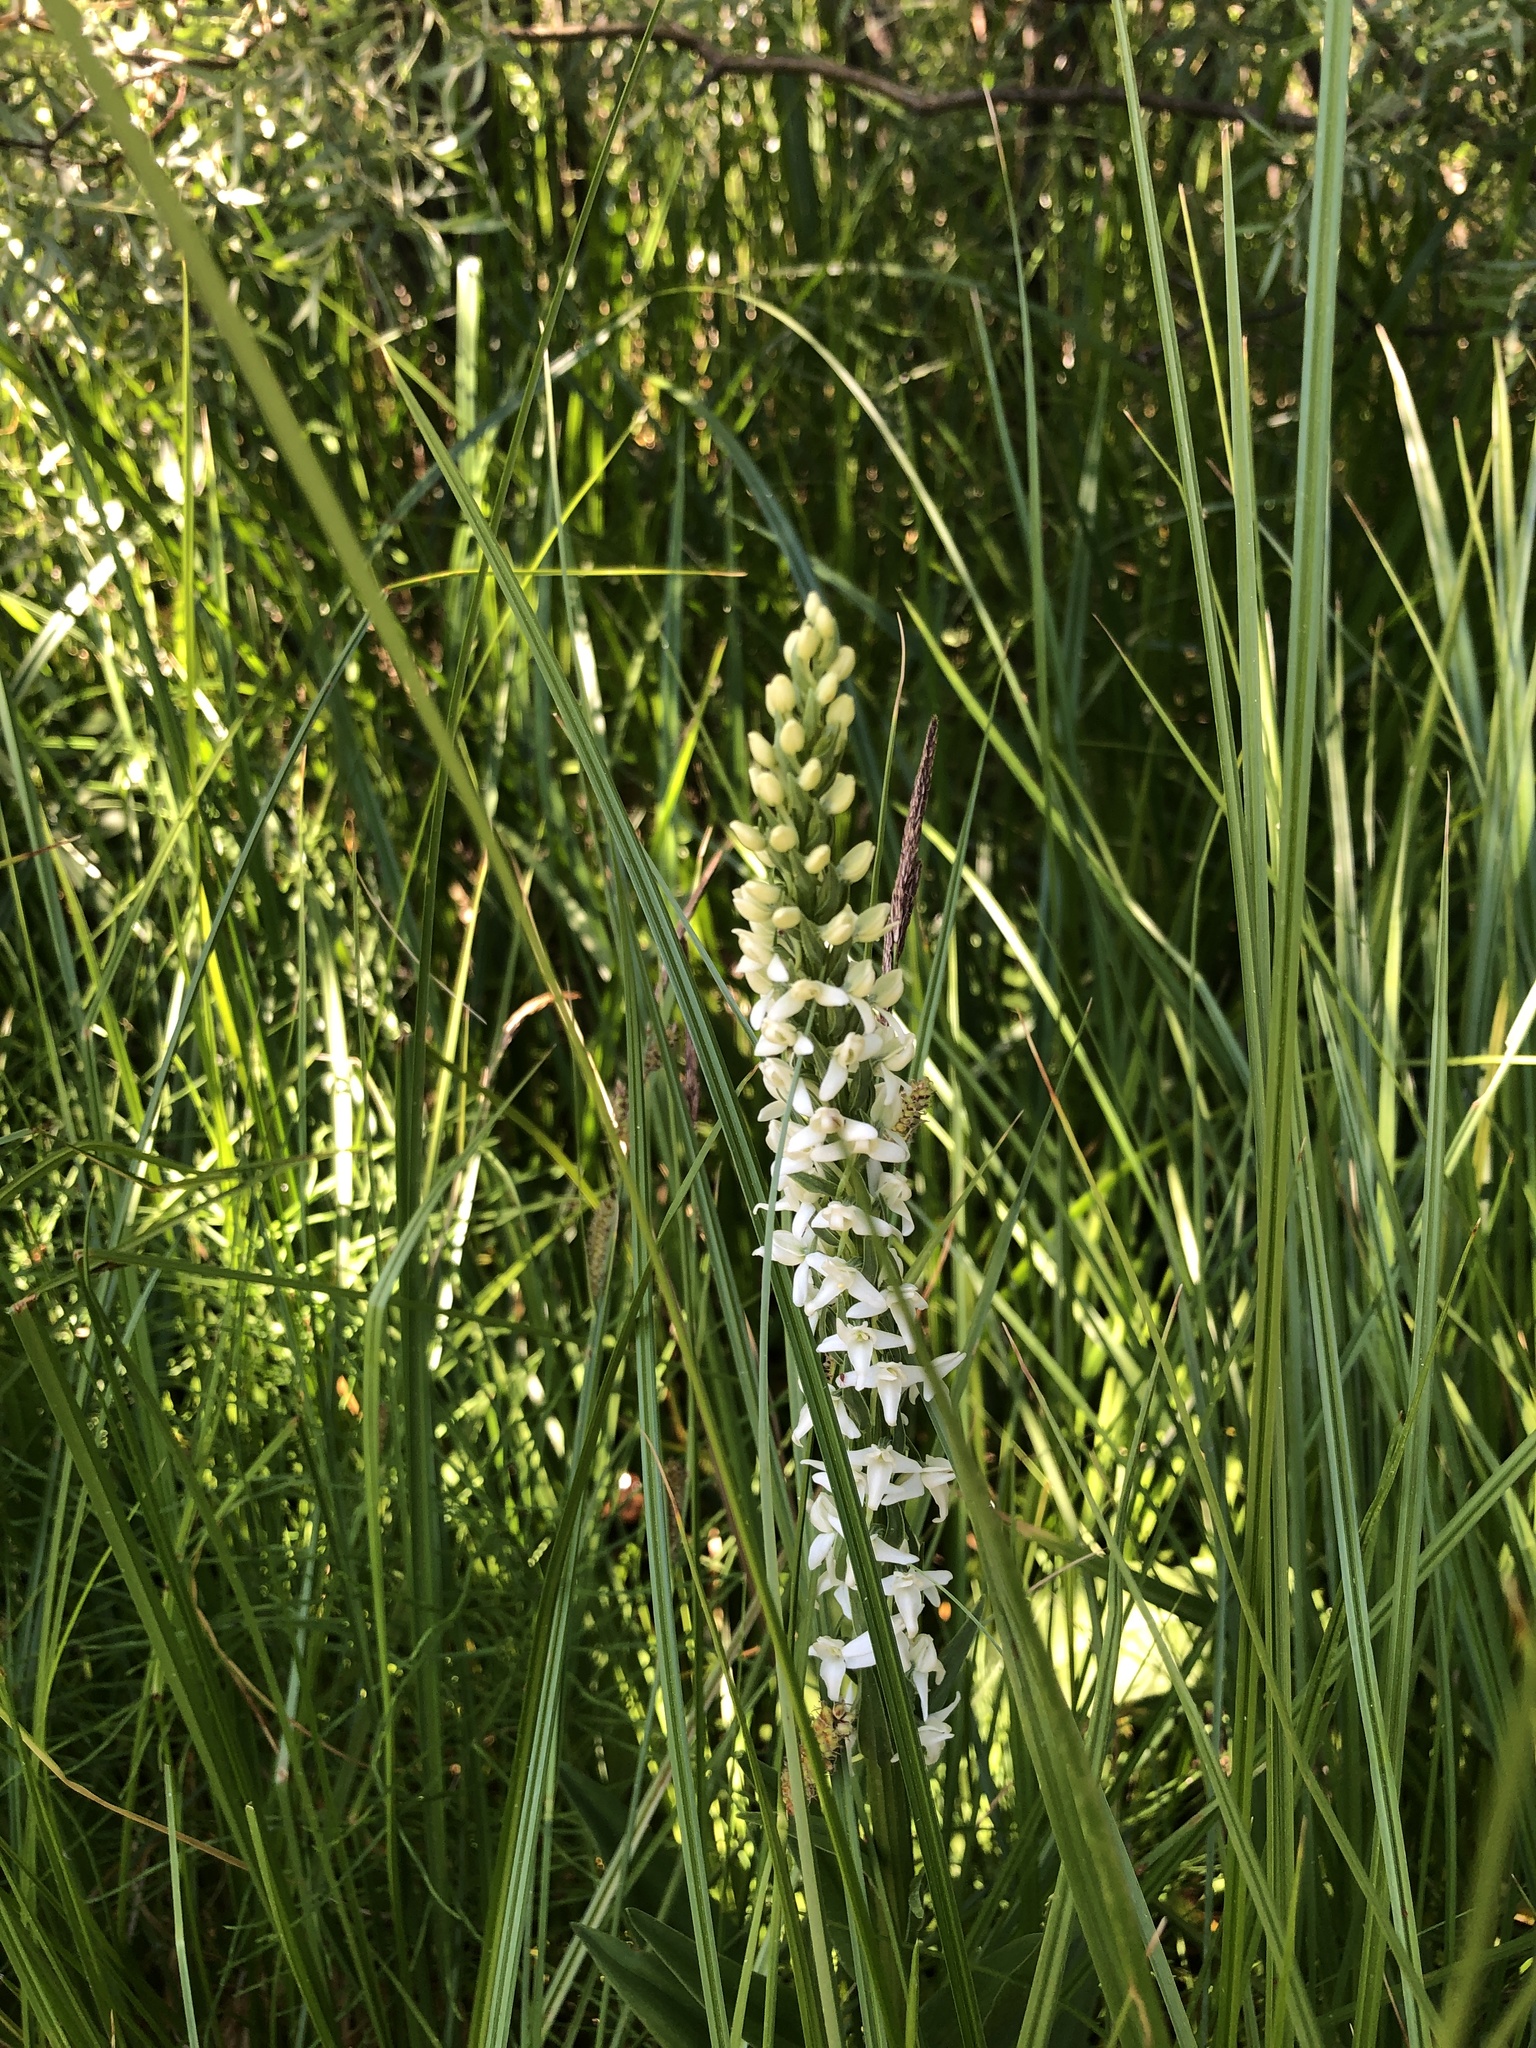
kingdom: Plantae
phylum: Tracheophyta
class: Liliopsida
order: Asparagales
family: Orchidaceae
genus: Platanthera
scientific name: Platanthera dilatata
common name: Bog candles
